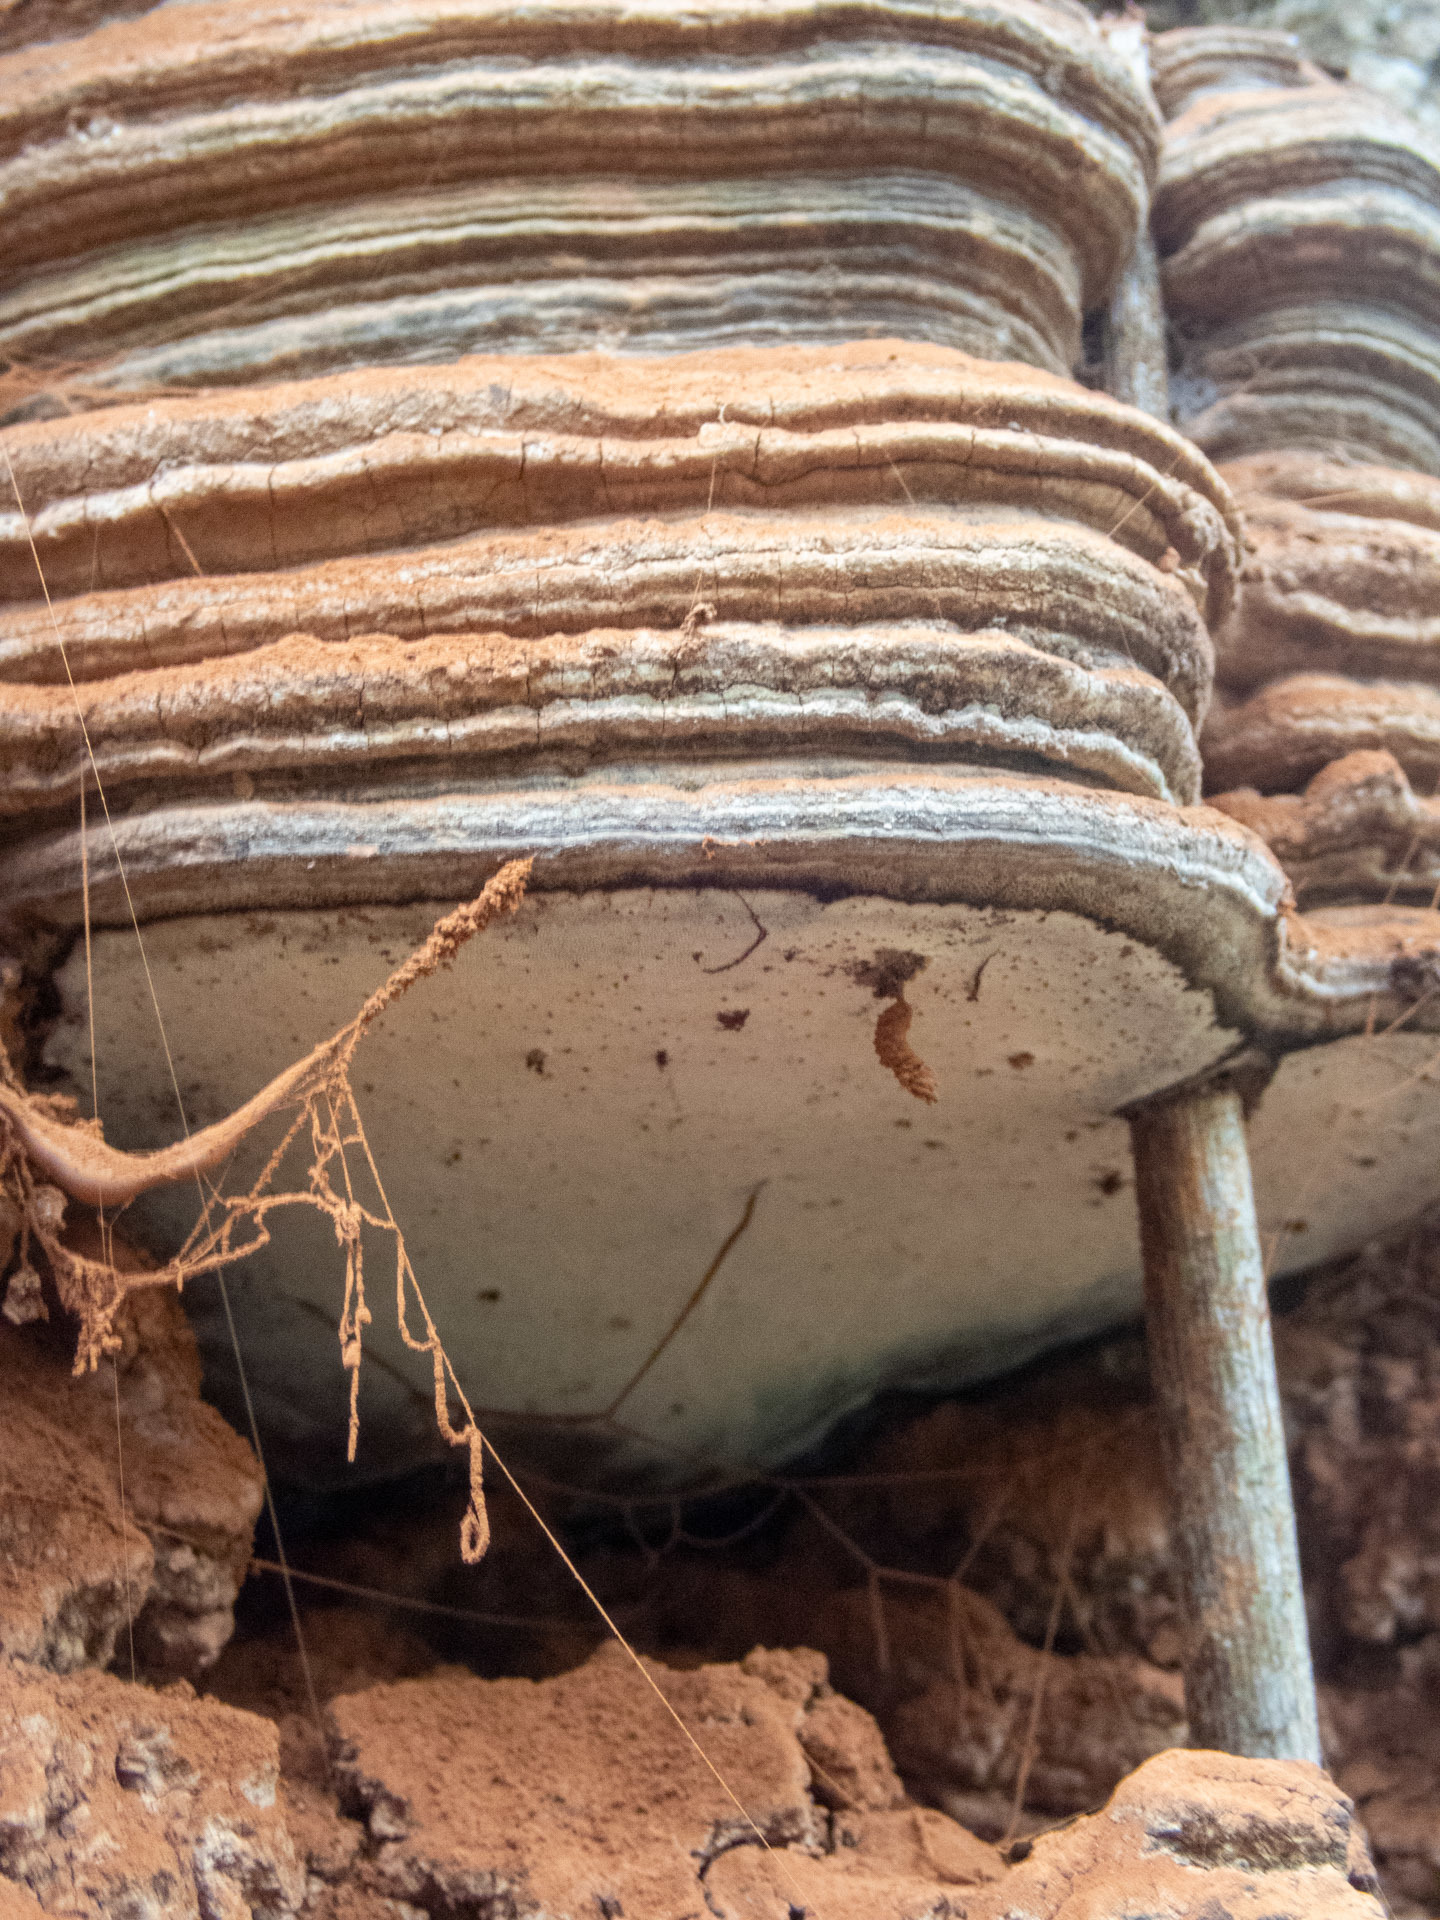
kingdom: Fungi
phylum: Basidiomycota
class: Agaricomycetes
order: Polyporales
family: Polyporaceae
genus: Ganoderma
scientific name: Ganoderma brownii
